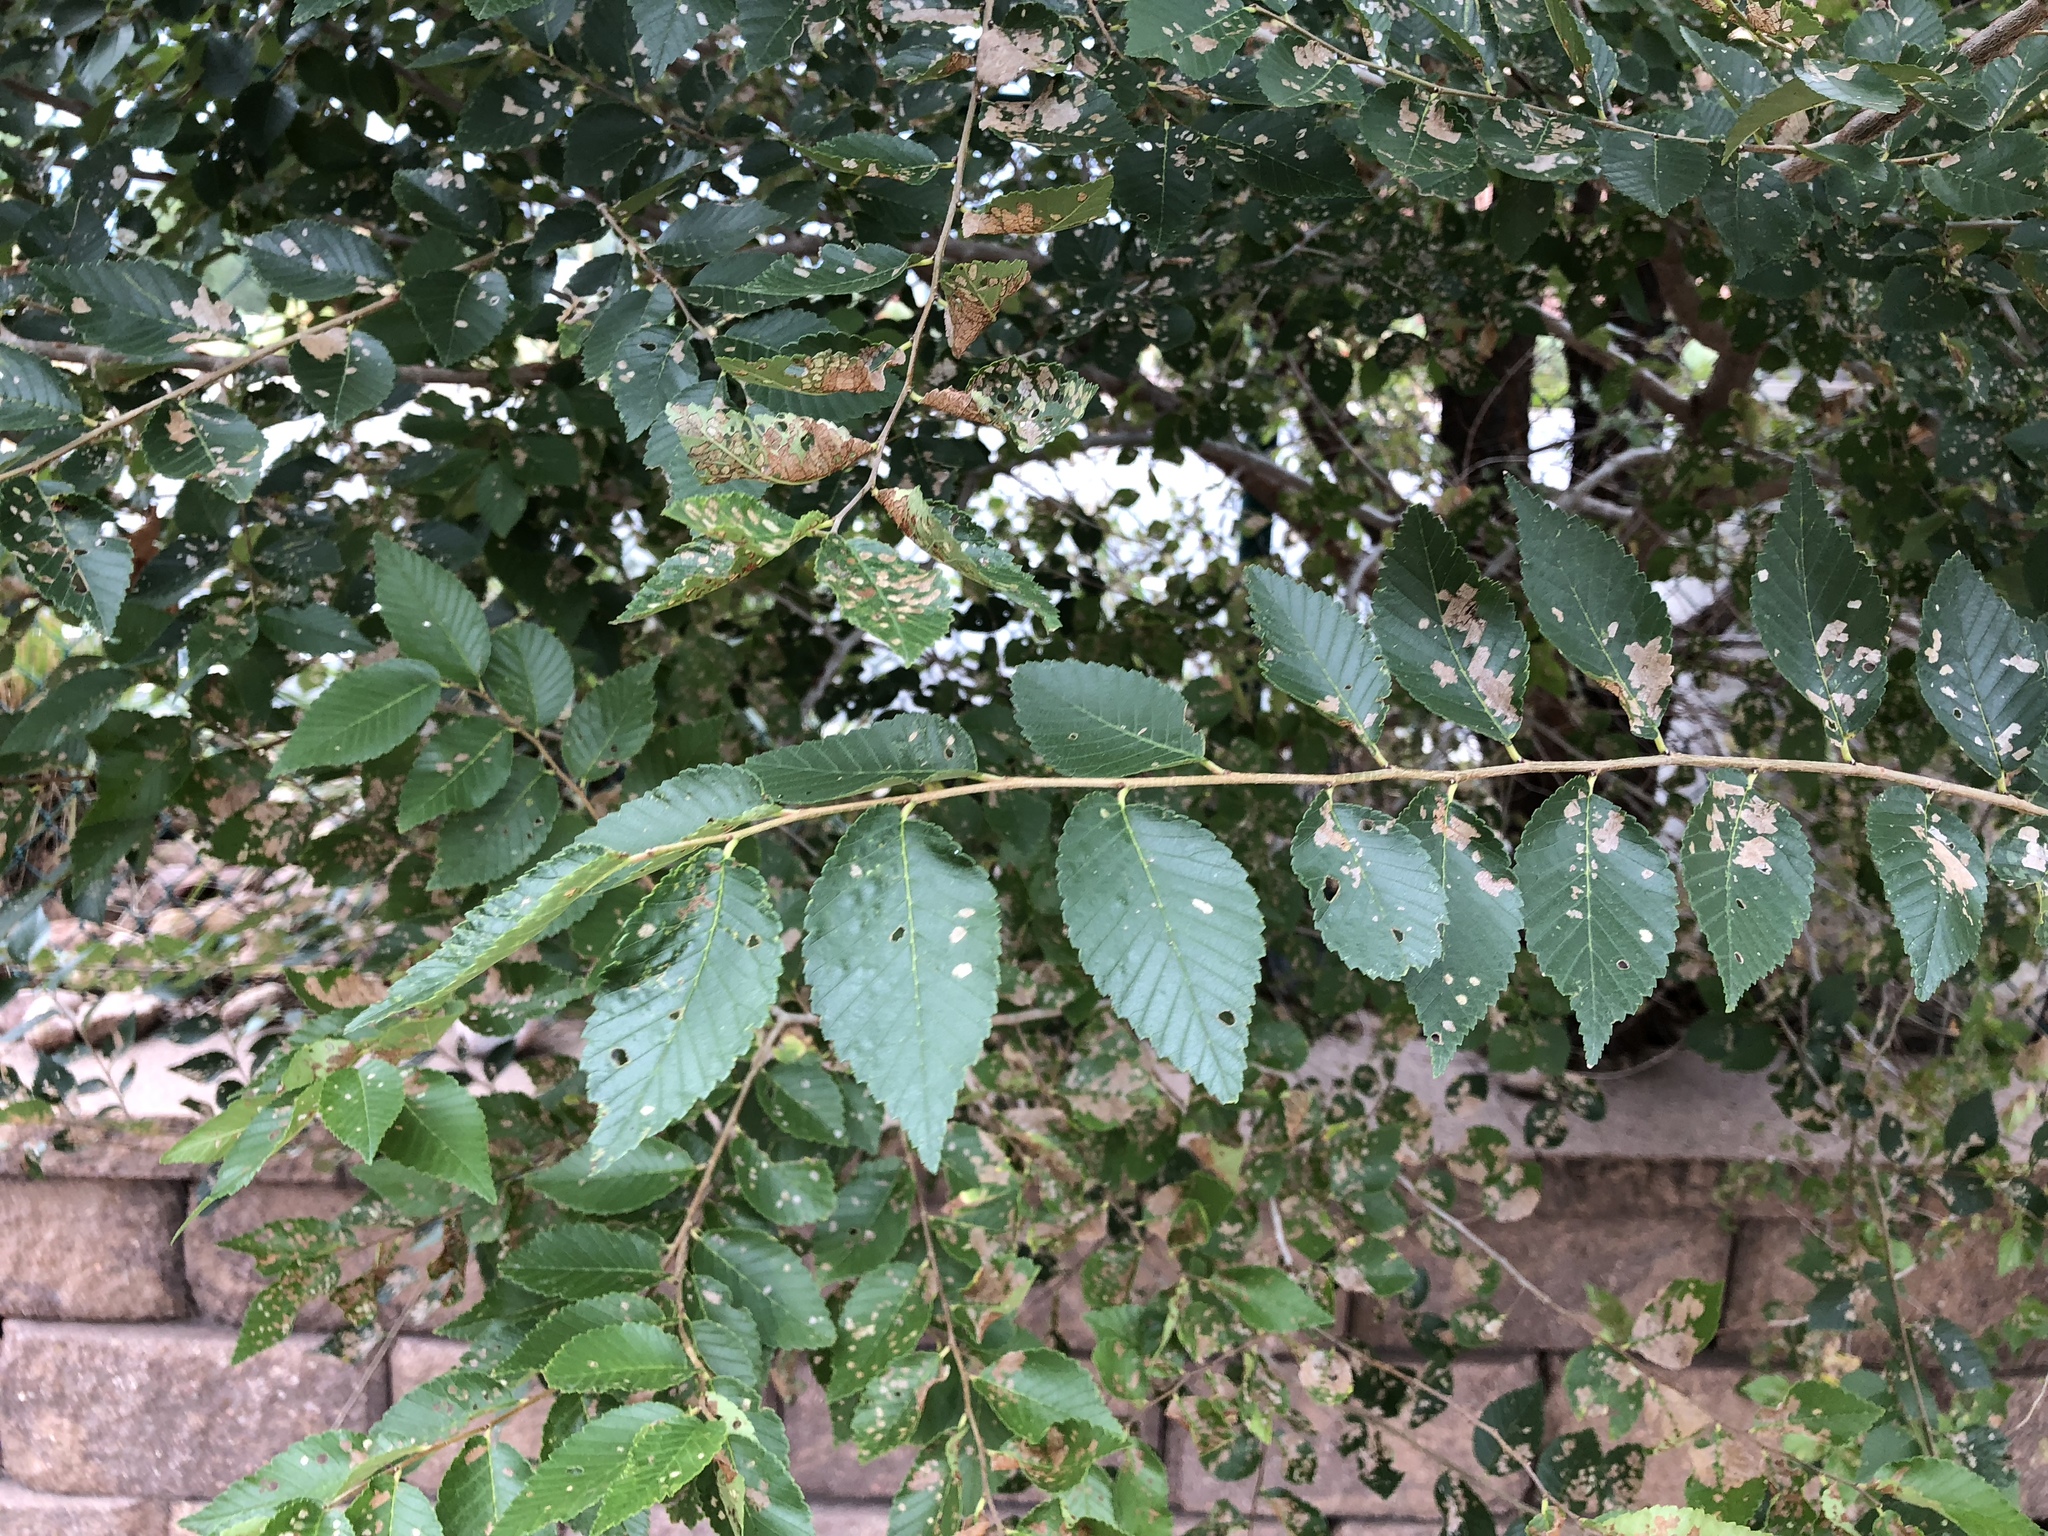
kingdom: Plantae
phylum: Tracheophyta
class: Magnoliopsida
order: Rosales
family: Ulmaceae
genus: Ulmus
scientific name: Ulmus pumila
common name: Siberian elm
